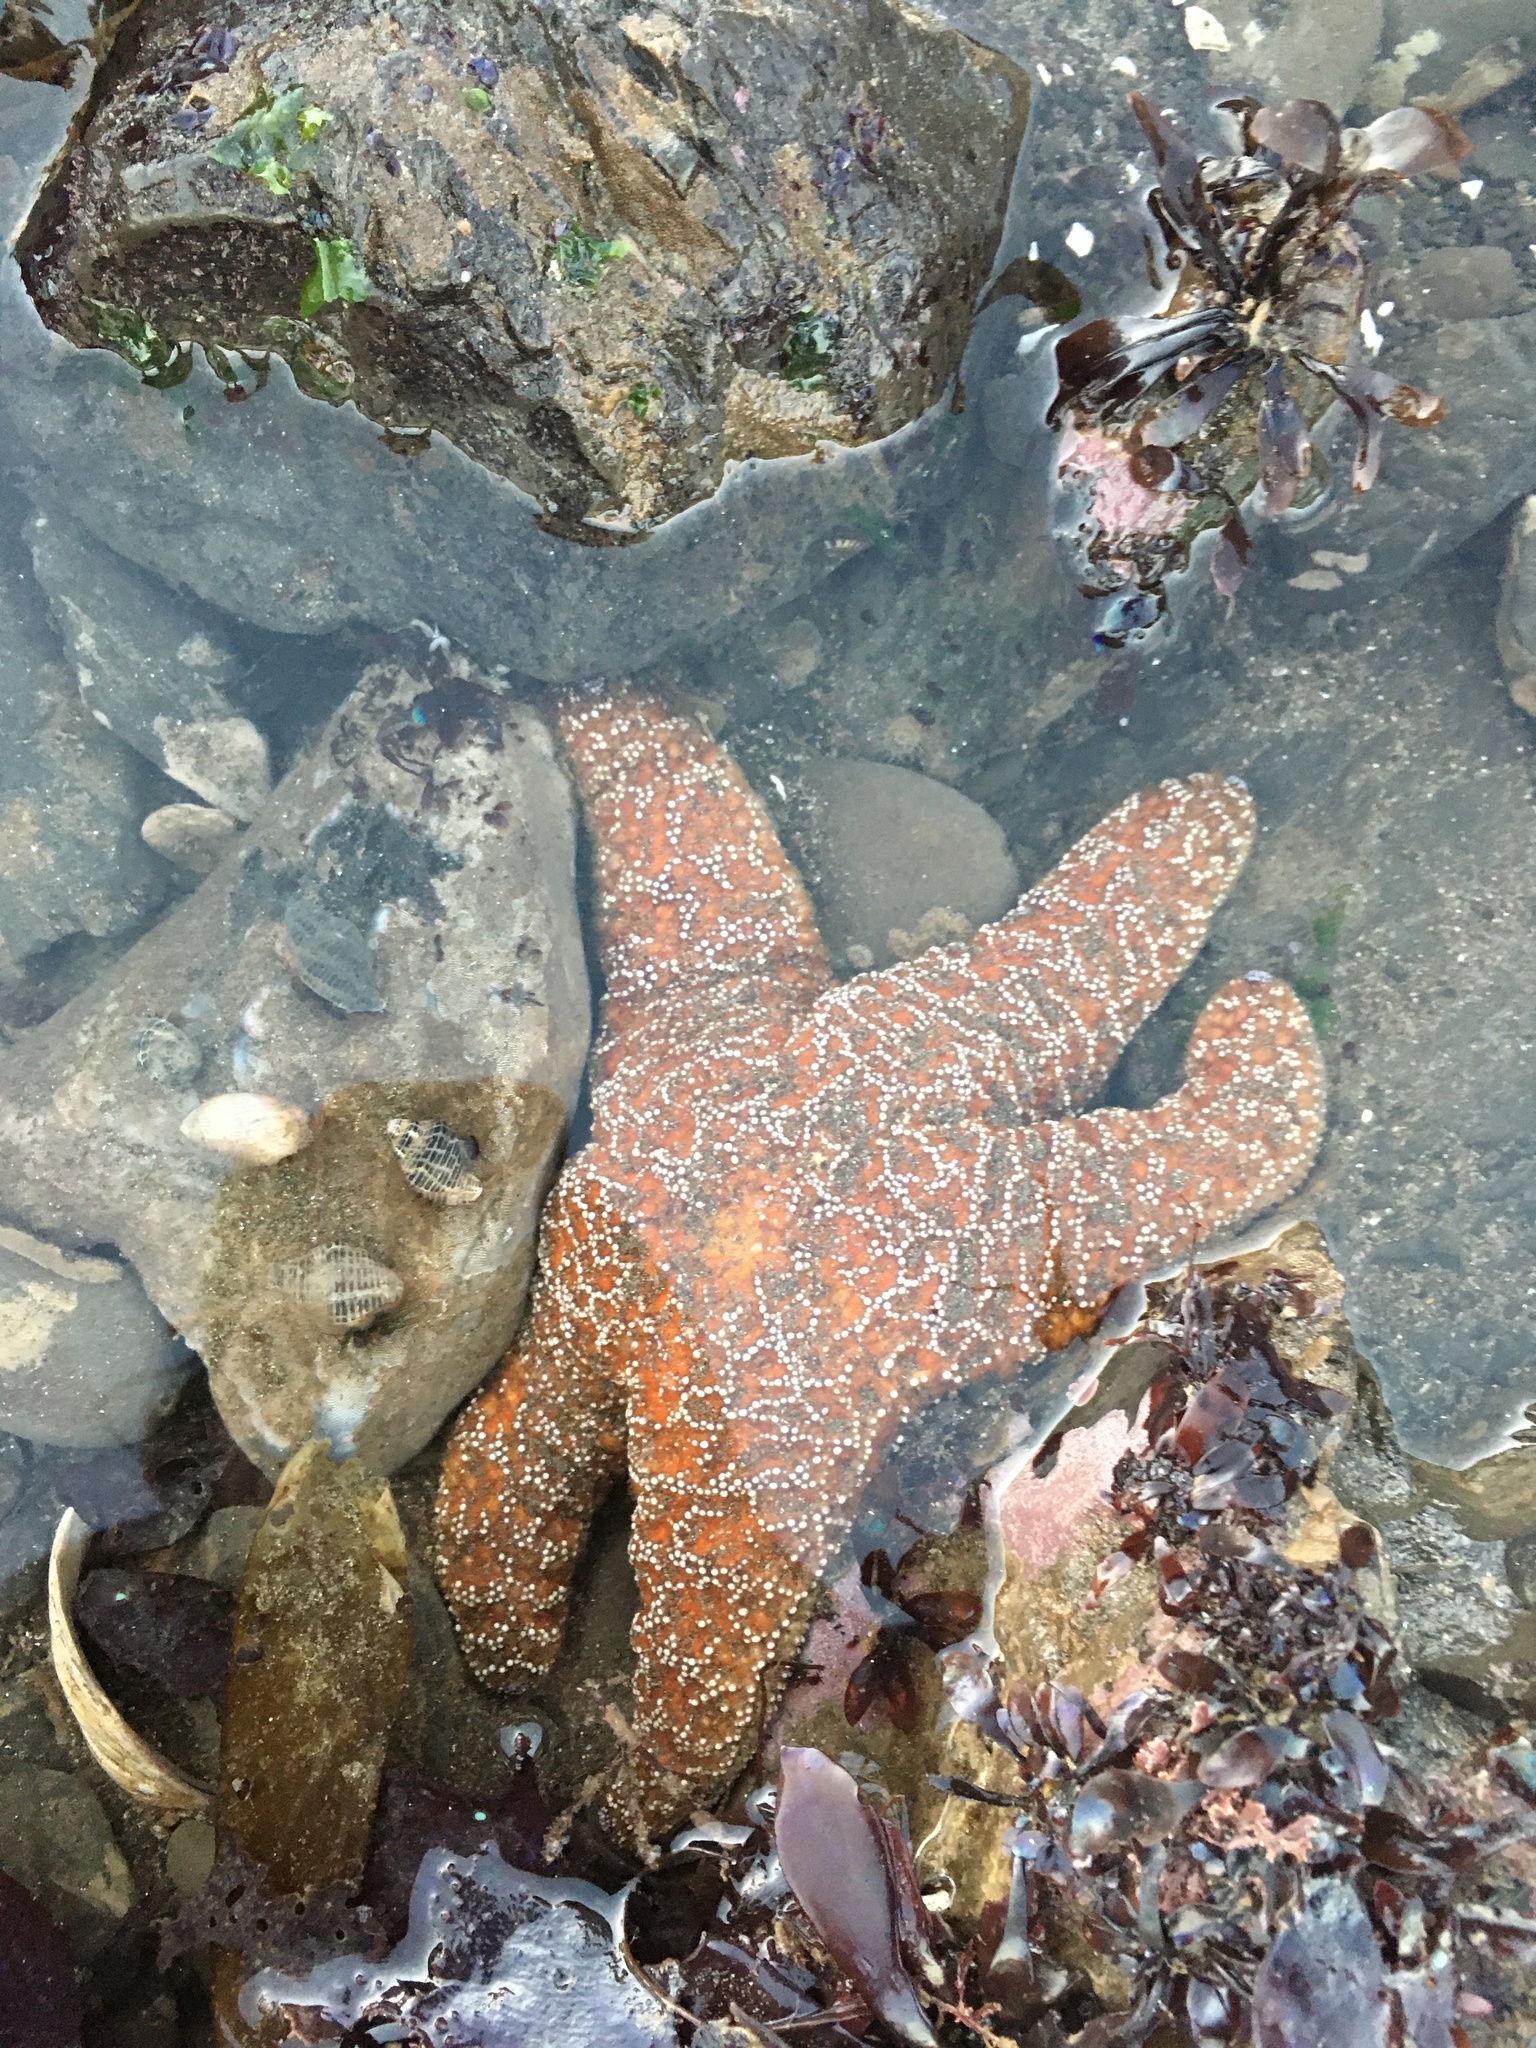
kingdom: Animalia
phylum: Echinodermata
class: Asteroidea
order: Forcipulatida
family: Asteriidae
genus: Pisaster
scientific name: Pisaster ochraceus
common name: Ochre stars
